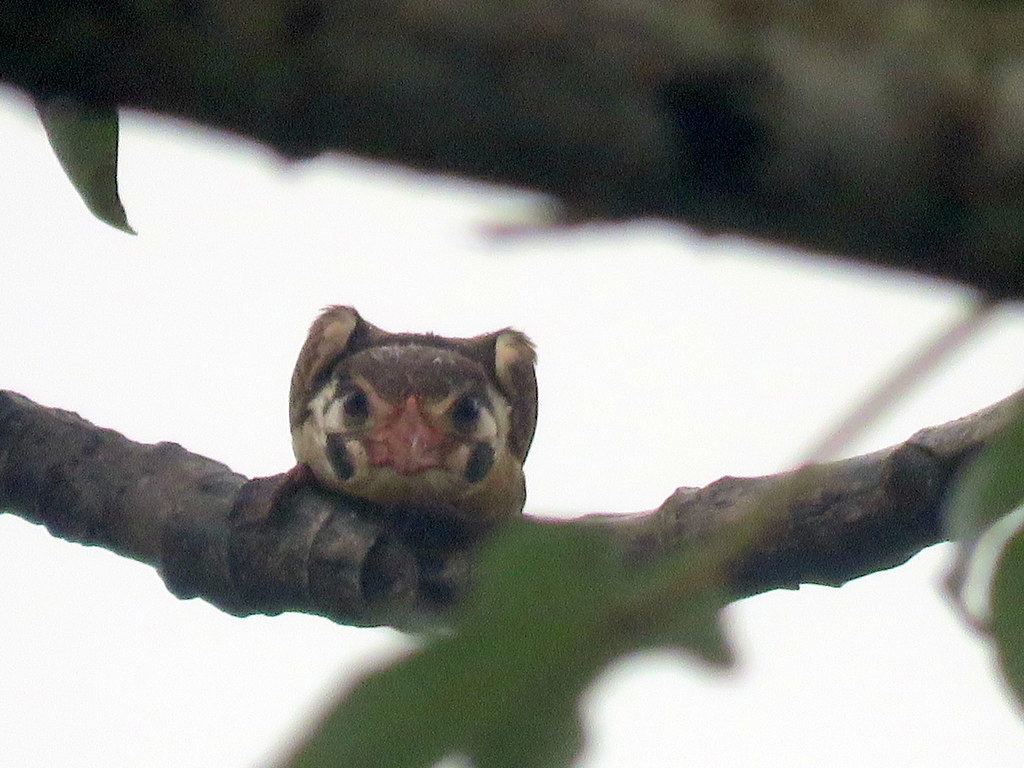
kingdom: Animalia
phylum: Chordata
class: Aves
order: Piciformes
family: Bucconidae
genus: Nystalus
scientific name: Nystalus chacuru
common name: White-eared puffbird
